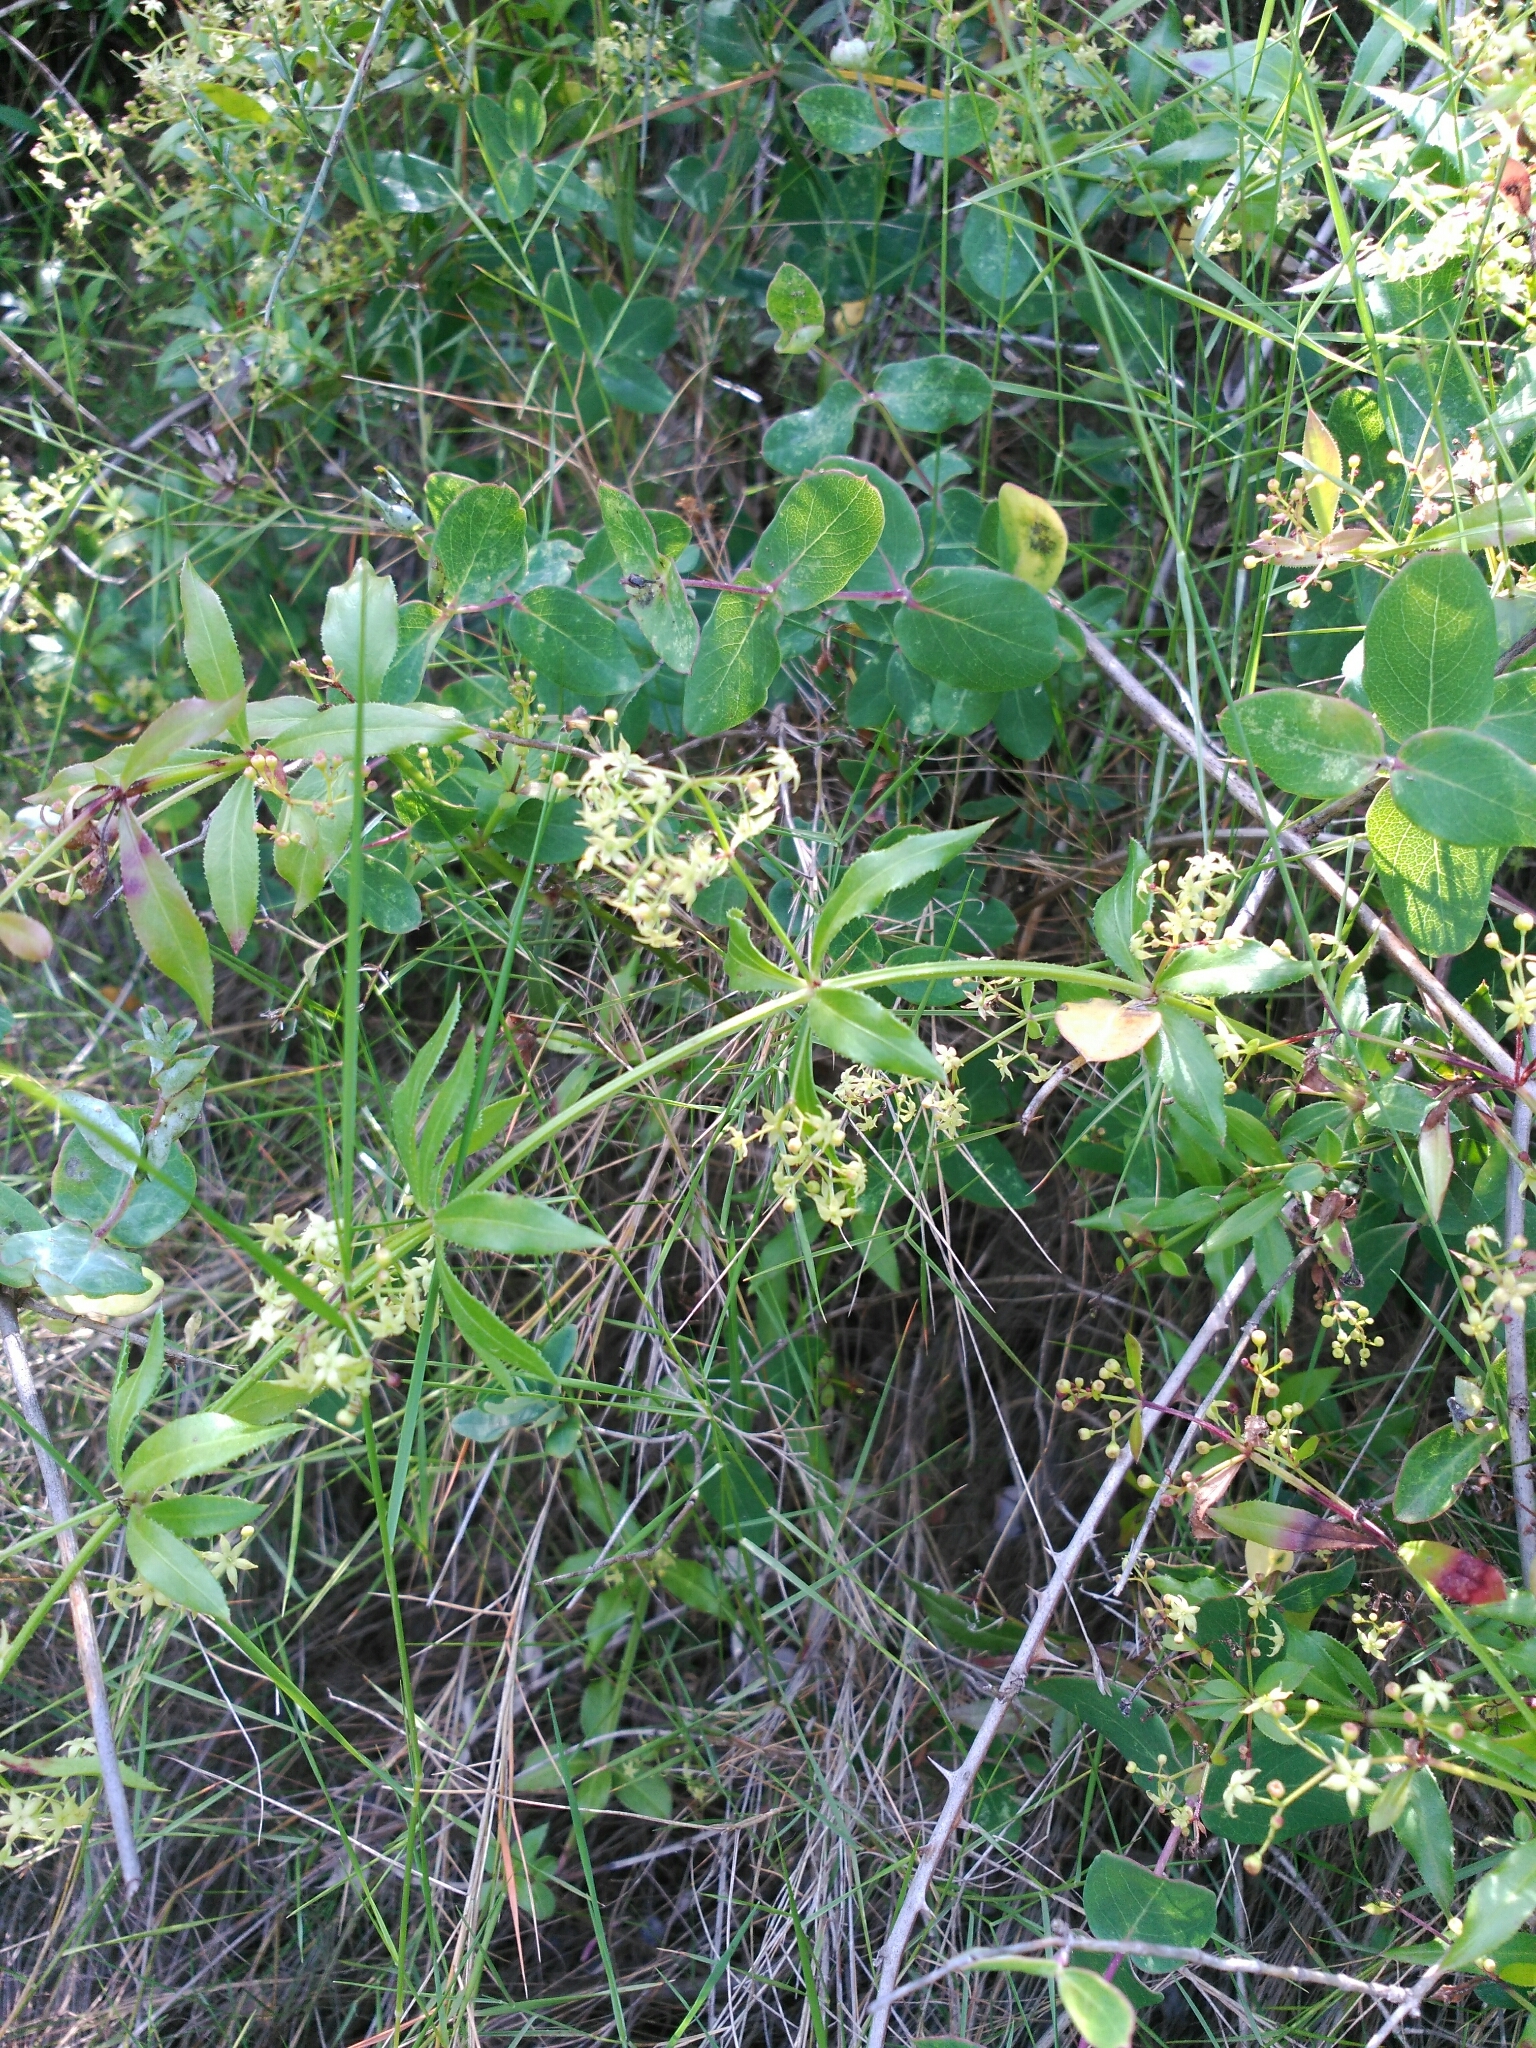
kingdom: Plantae
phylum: Tracheophyta
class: Magnoliopsida
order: Gentianales
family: Rubiaceae
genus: Rubia
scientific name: Rubia peregrina
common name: Wild madder
